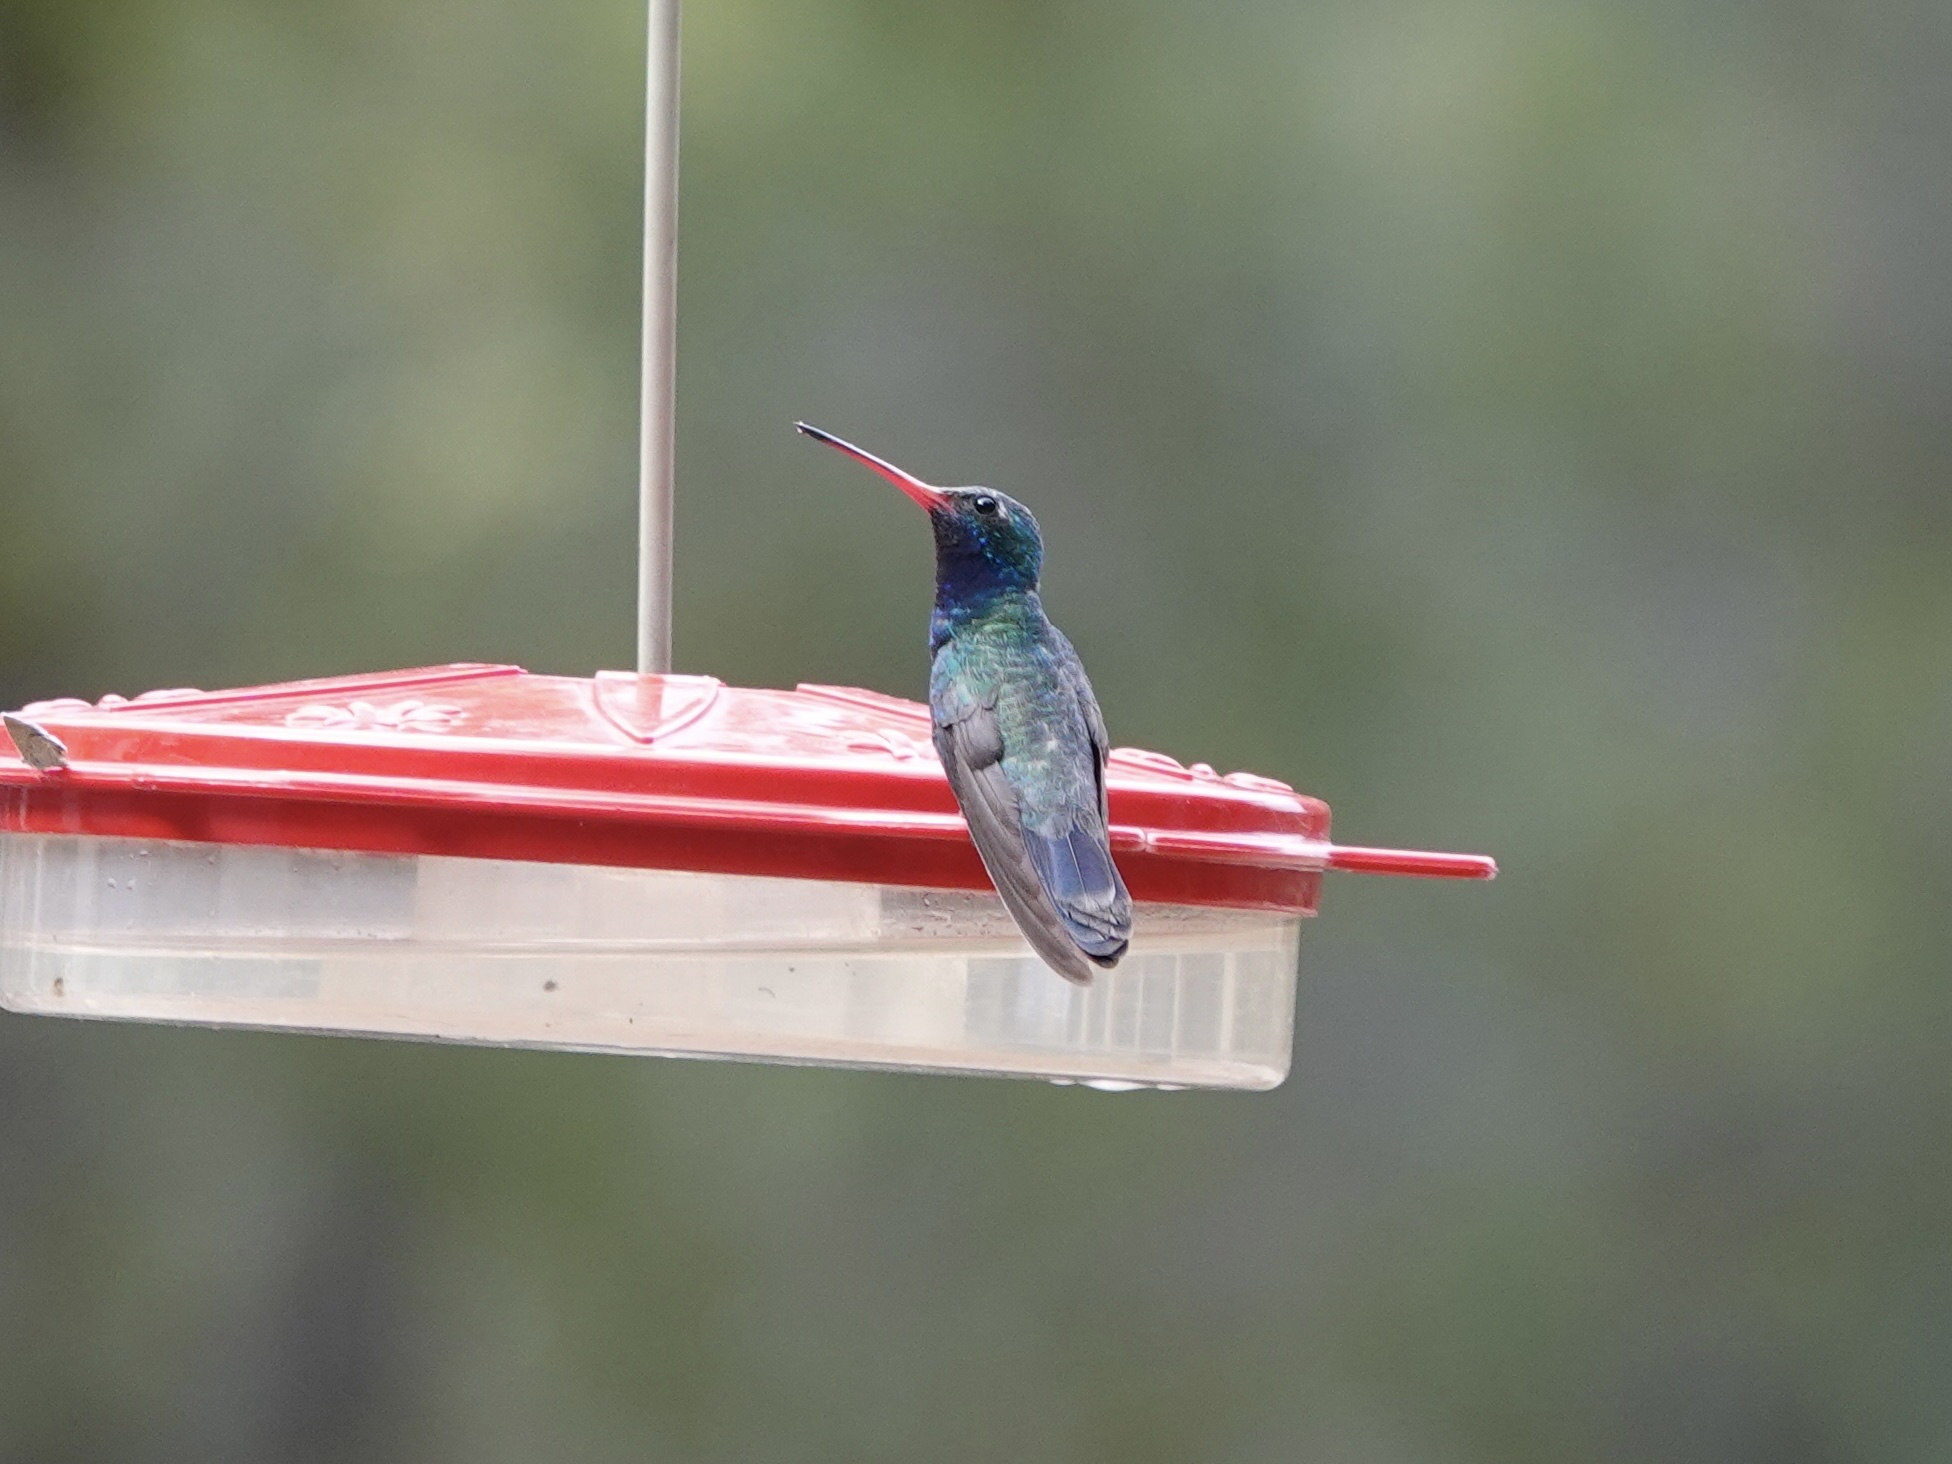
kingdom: Animalia
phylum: Chordata
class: Aves
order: Apodiformes
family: Trochilidae
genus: Cynanthus
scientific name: Cynanthus latirostris
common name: Broad-billed hummingbird
